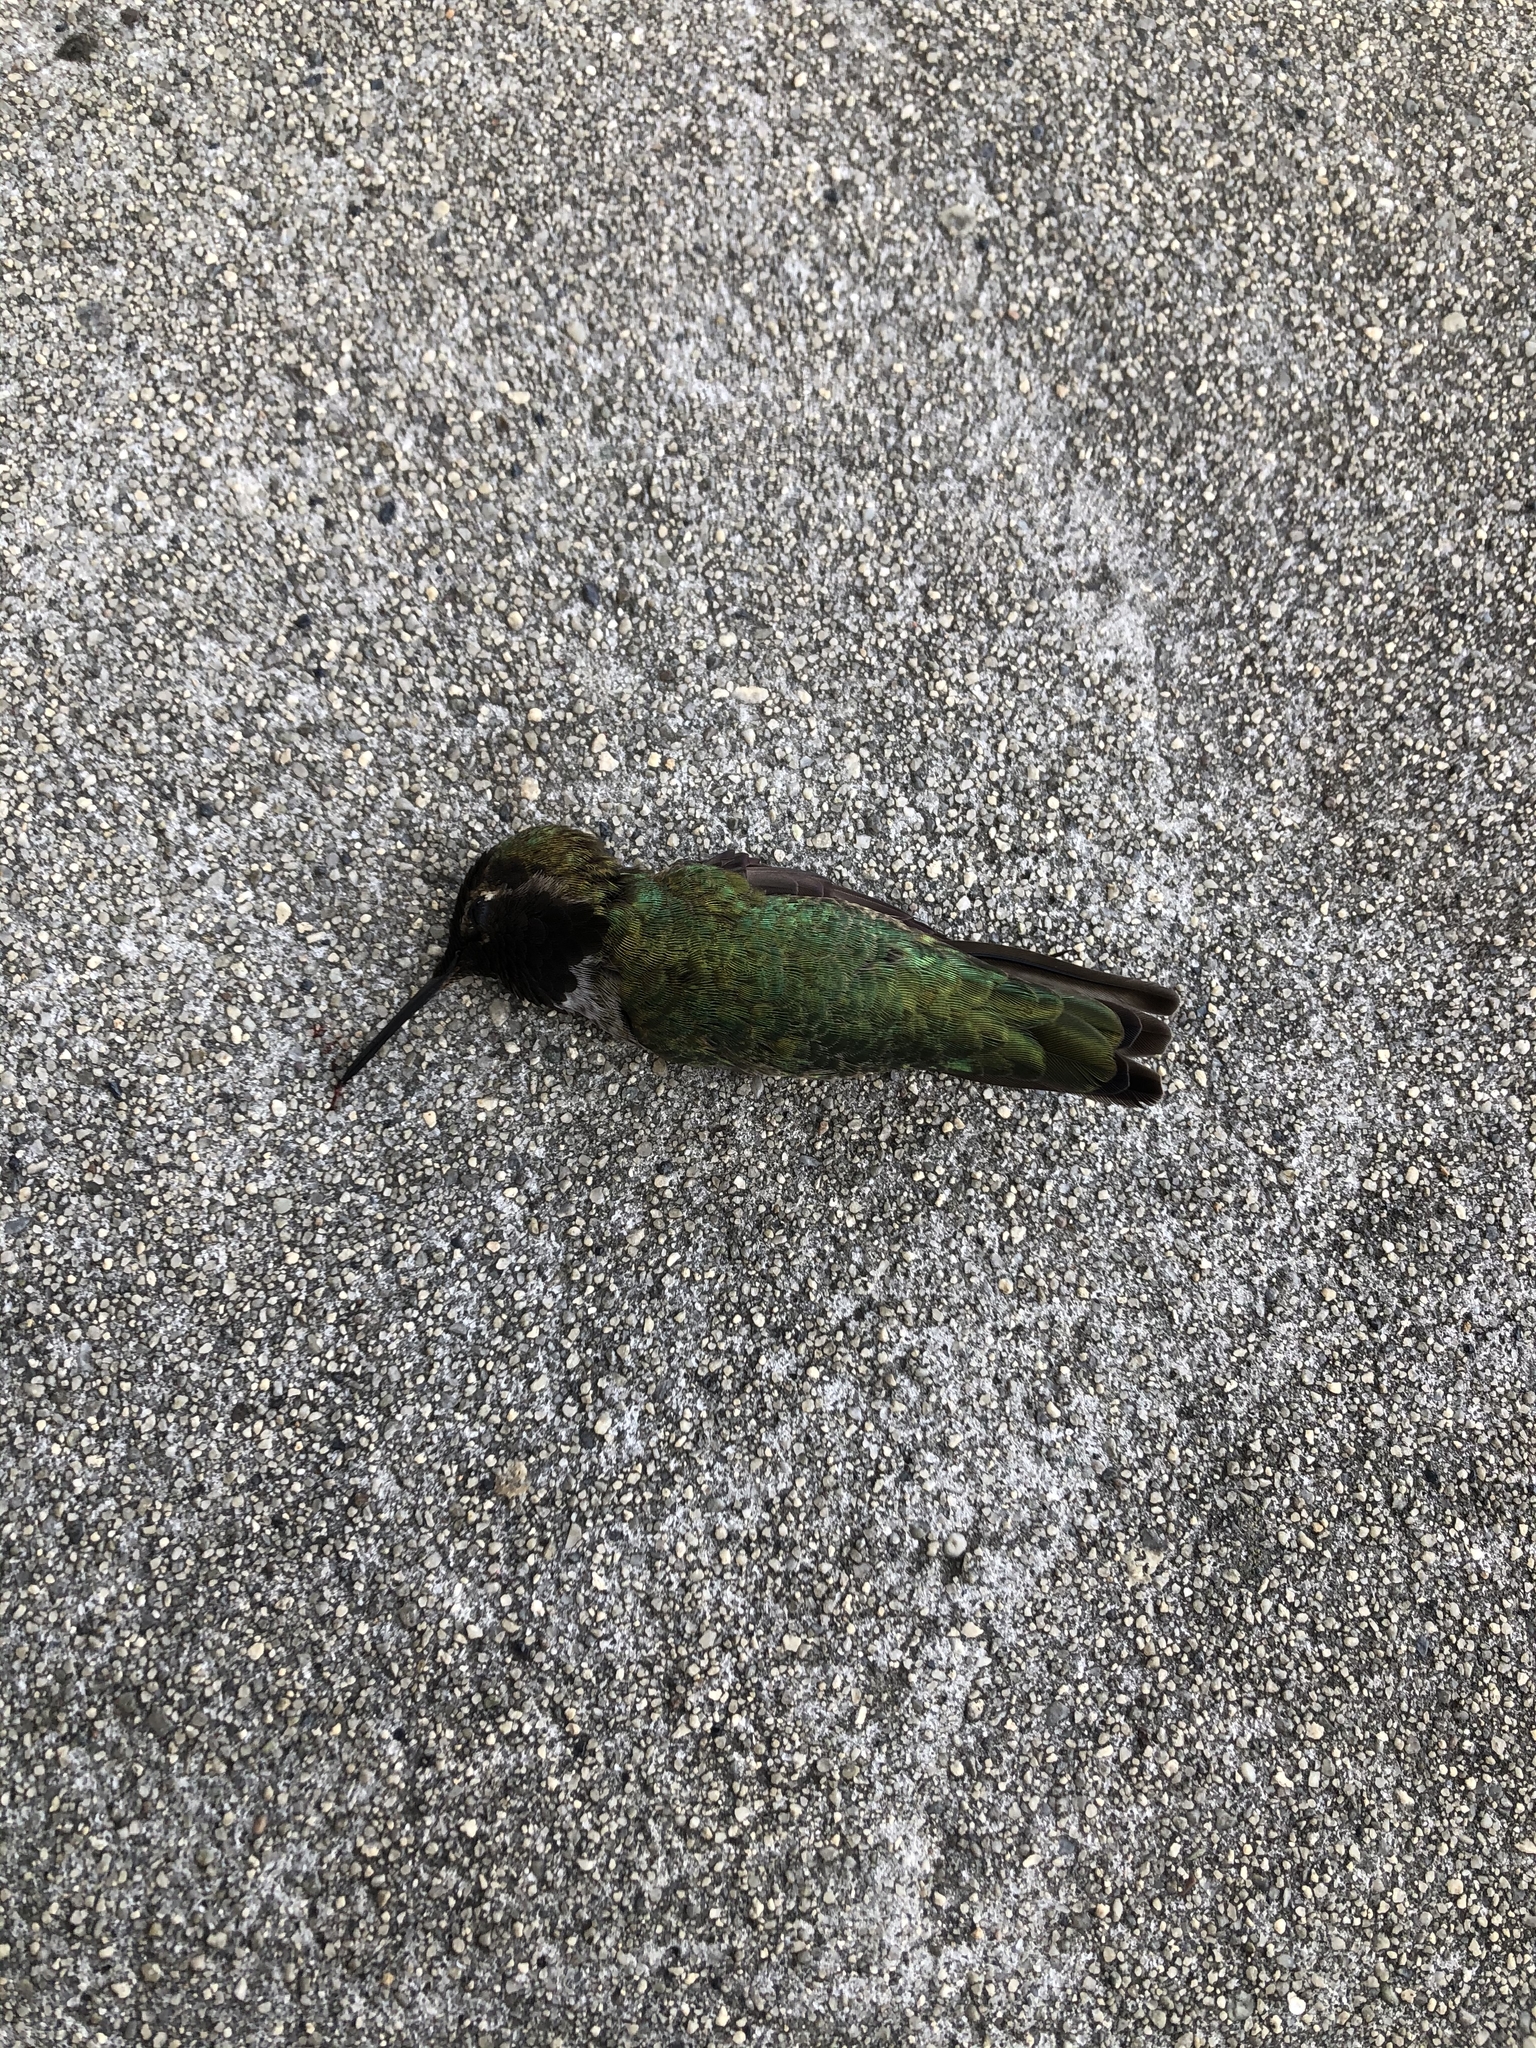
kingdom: Animalia
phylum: Chordata
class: Aves
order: Apodiformes
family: Trochilidae
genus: Calypte
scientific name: Calypte anna
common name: Anna's hummingbird
